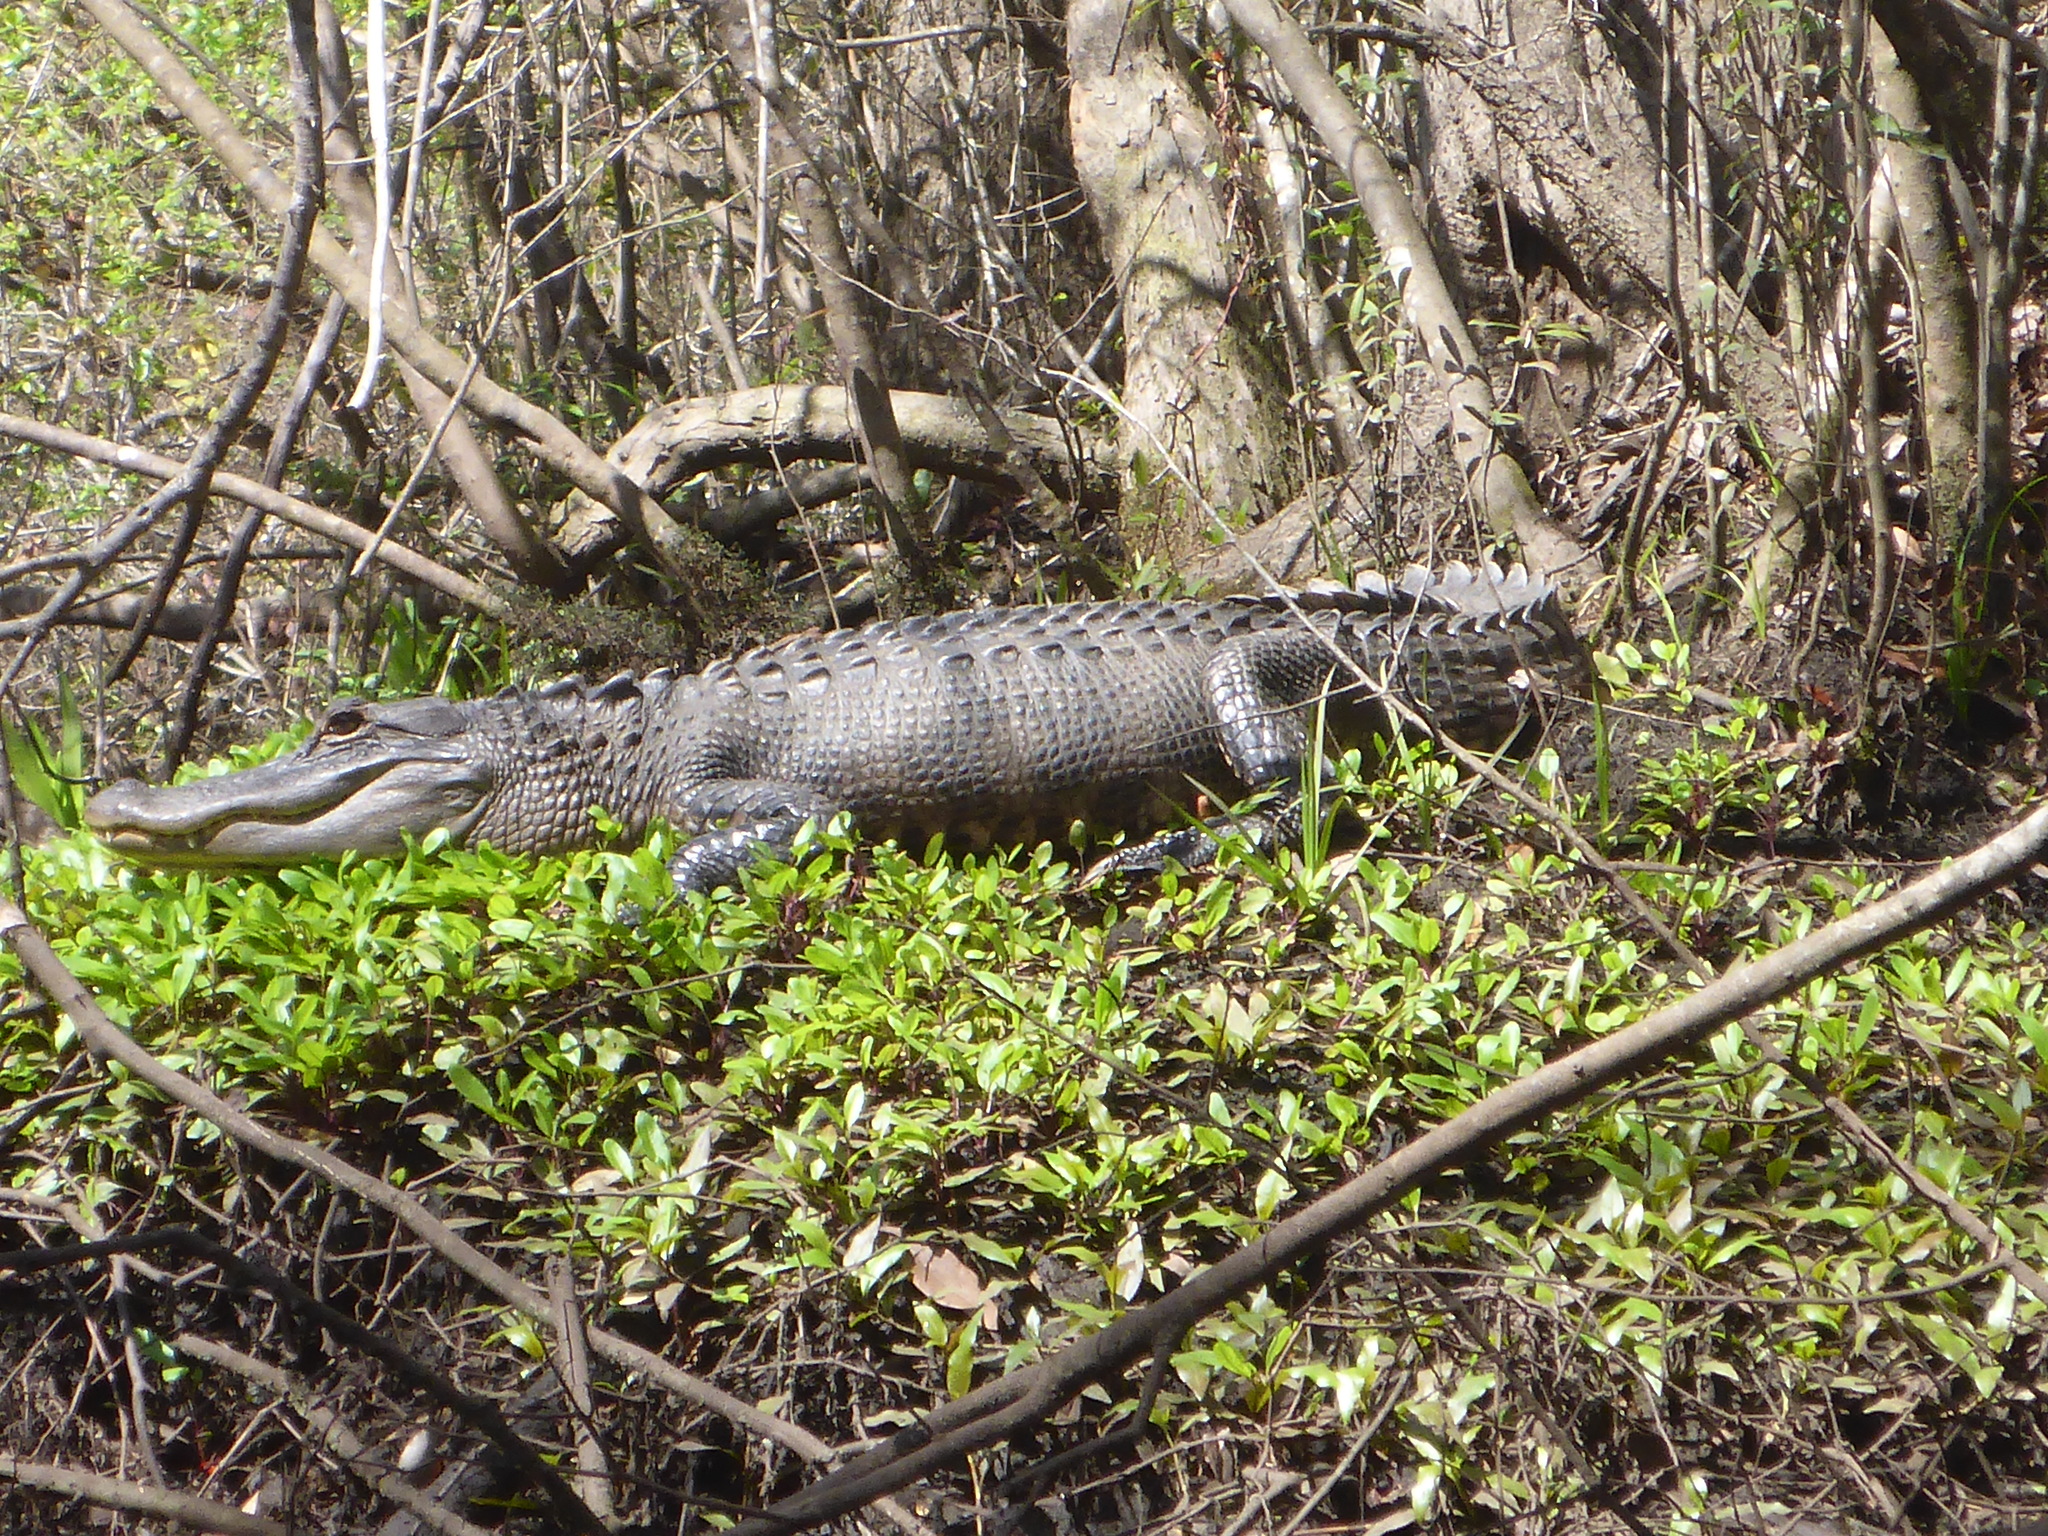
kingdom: Animalia
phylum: Chordata
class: Crocodylia
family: Alligatoridae
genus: Alligator
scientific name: Alligator mississippiensis
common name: American alligator
